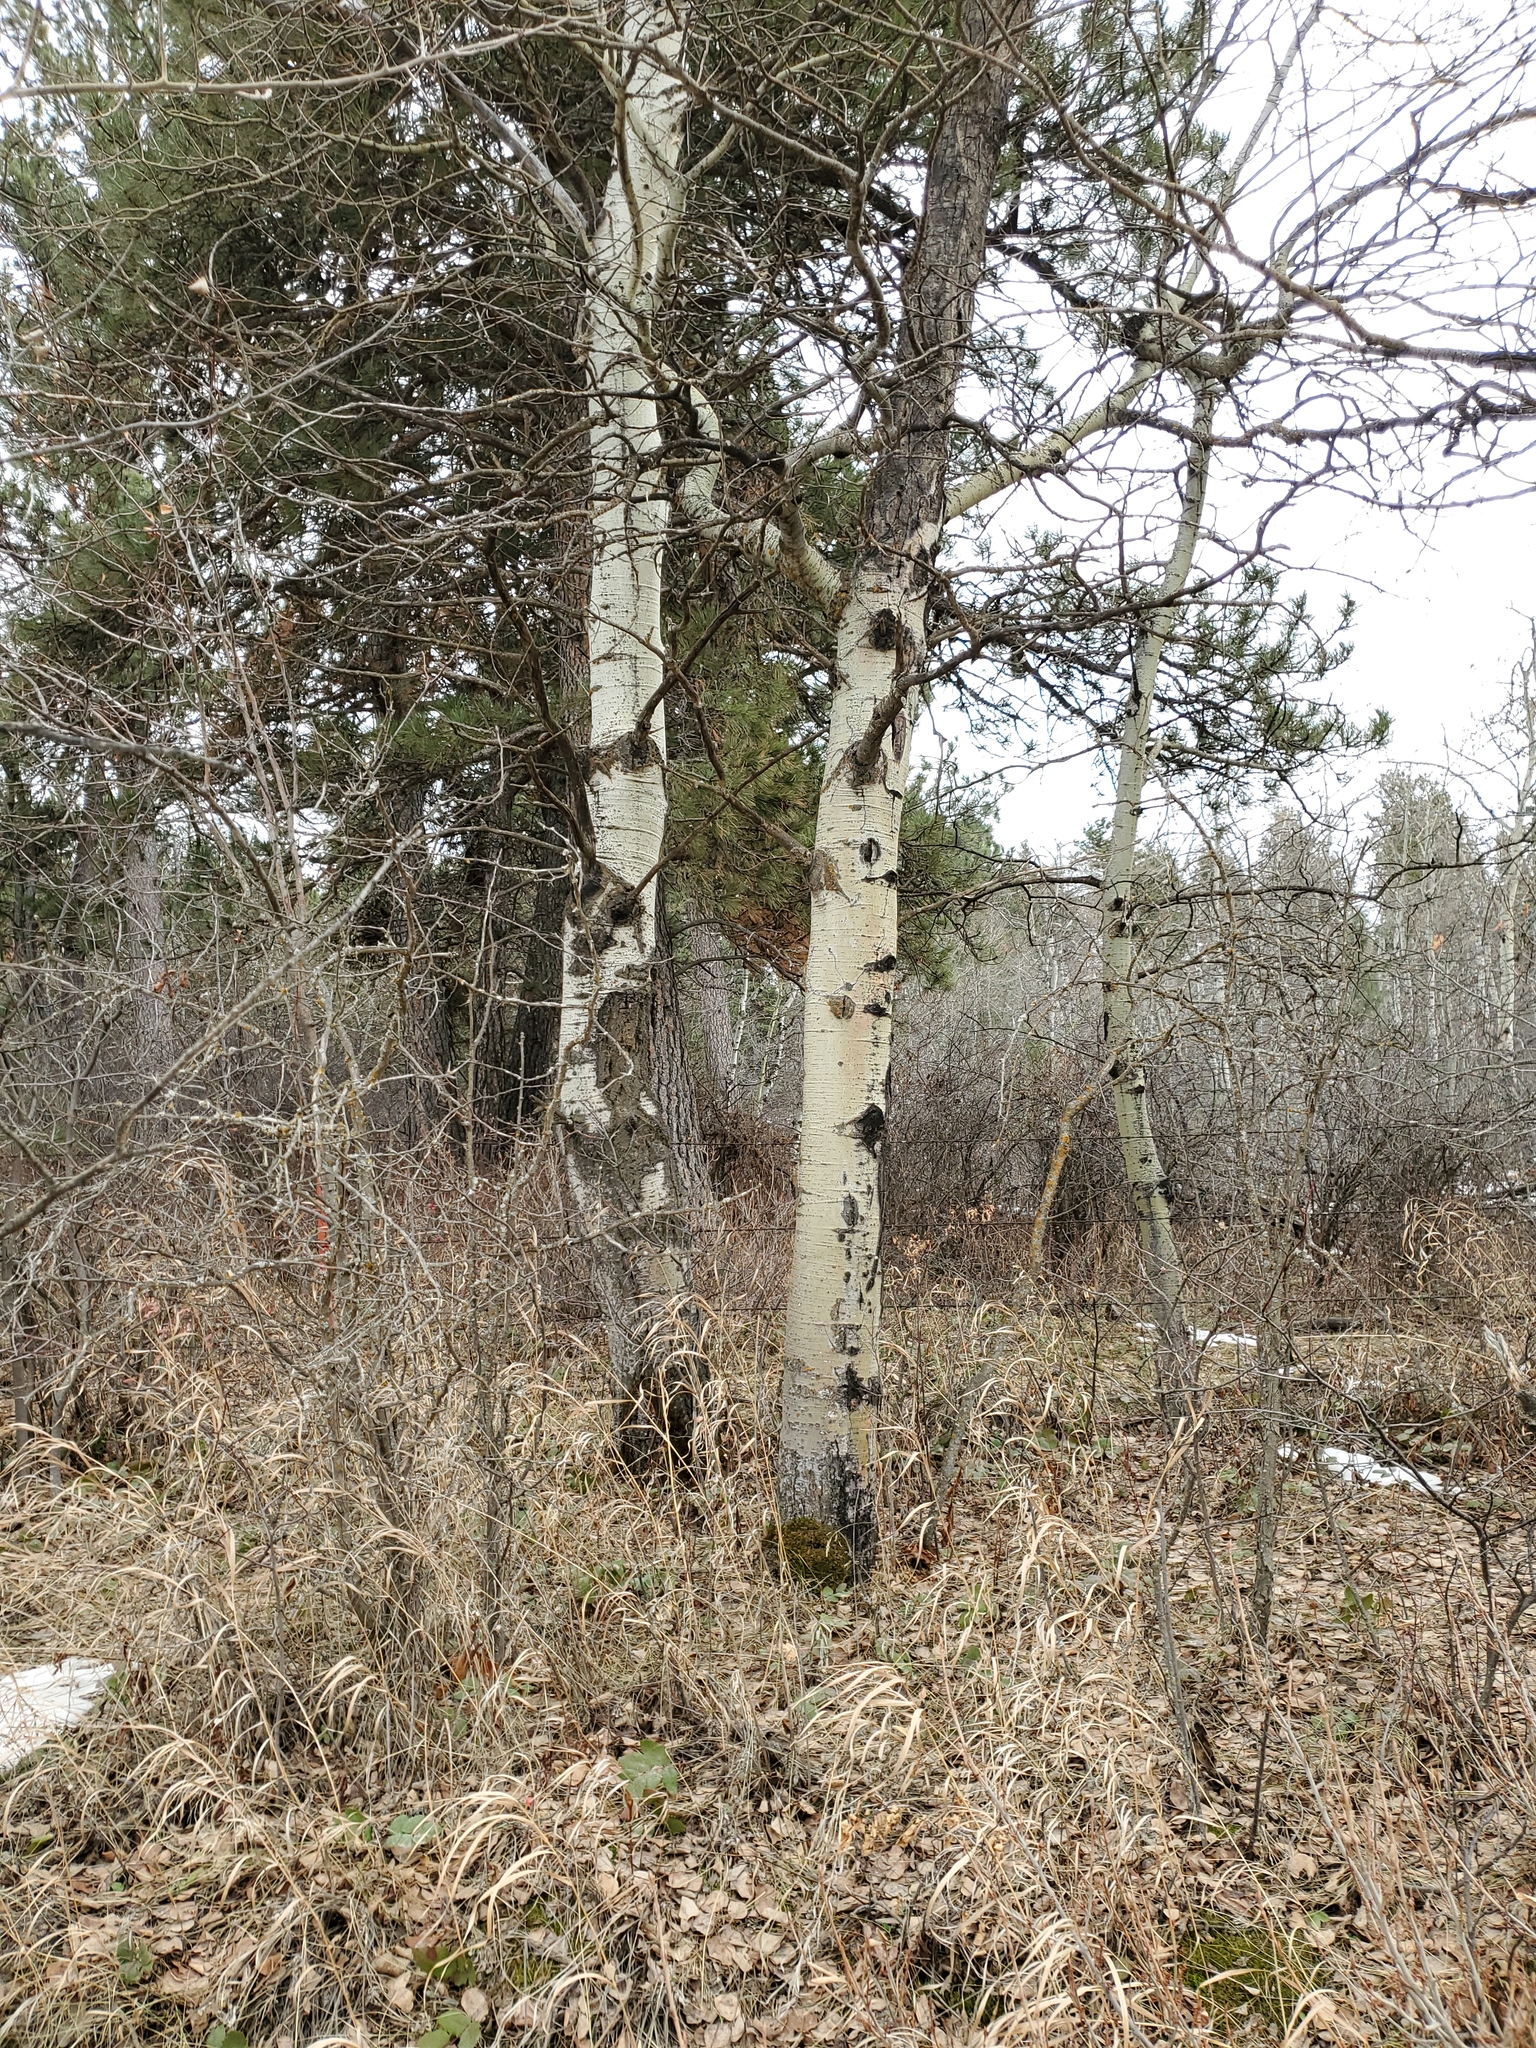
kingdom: Plantae
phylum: Tracheophyta
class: Magnoliopsida
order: Malpighiales
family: Salicaceae
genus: Populus
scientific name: Populus tremuloides
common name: Quaking aspen
